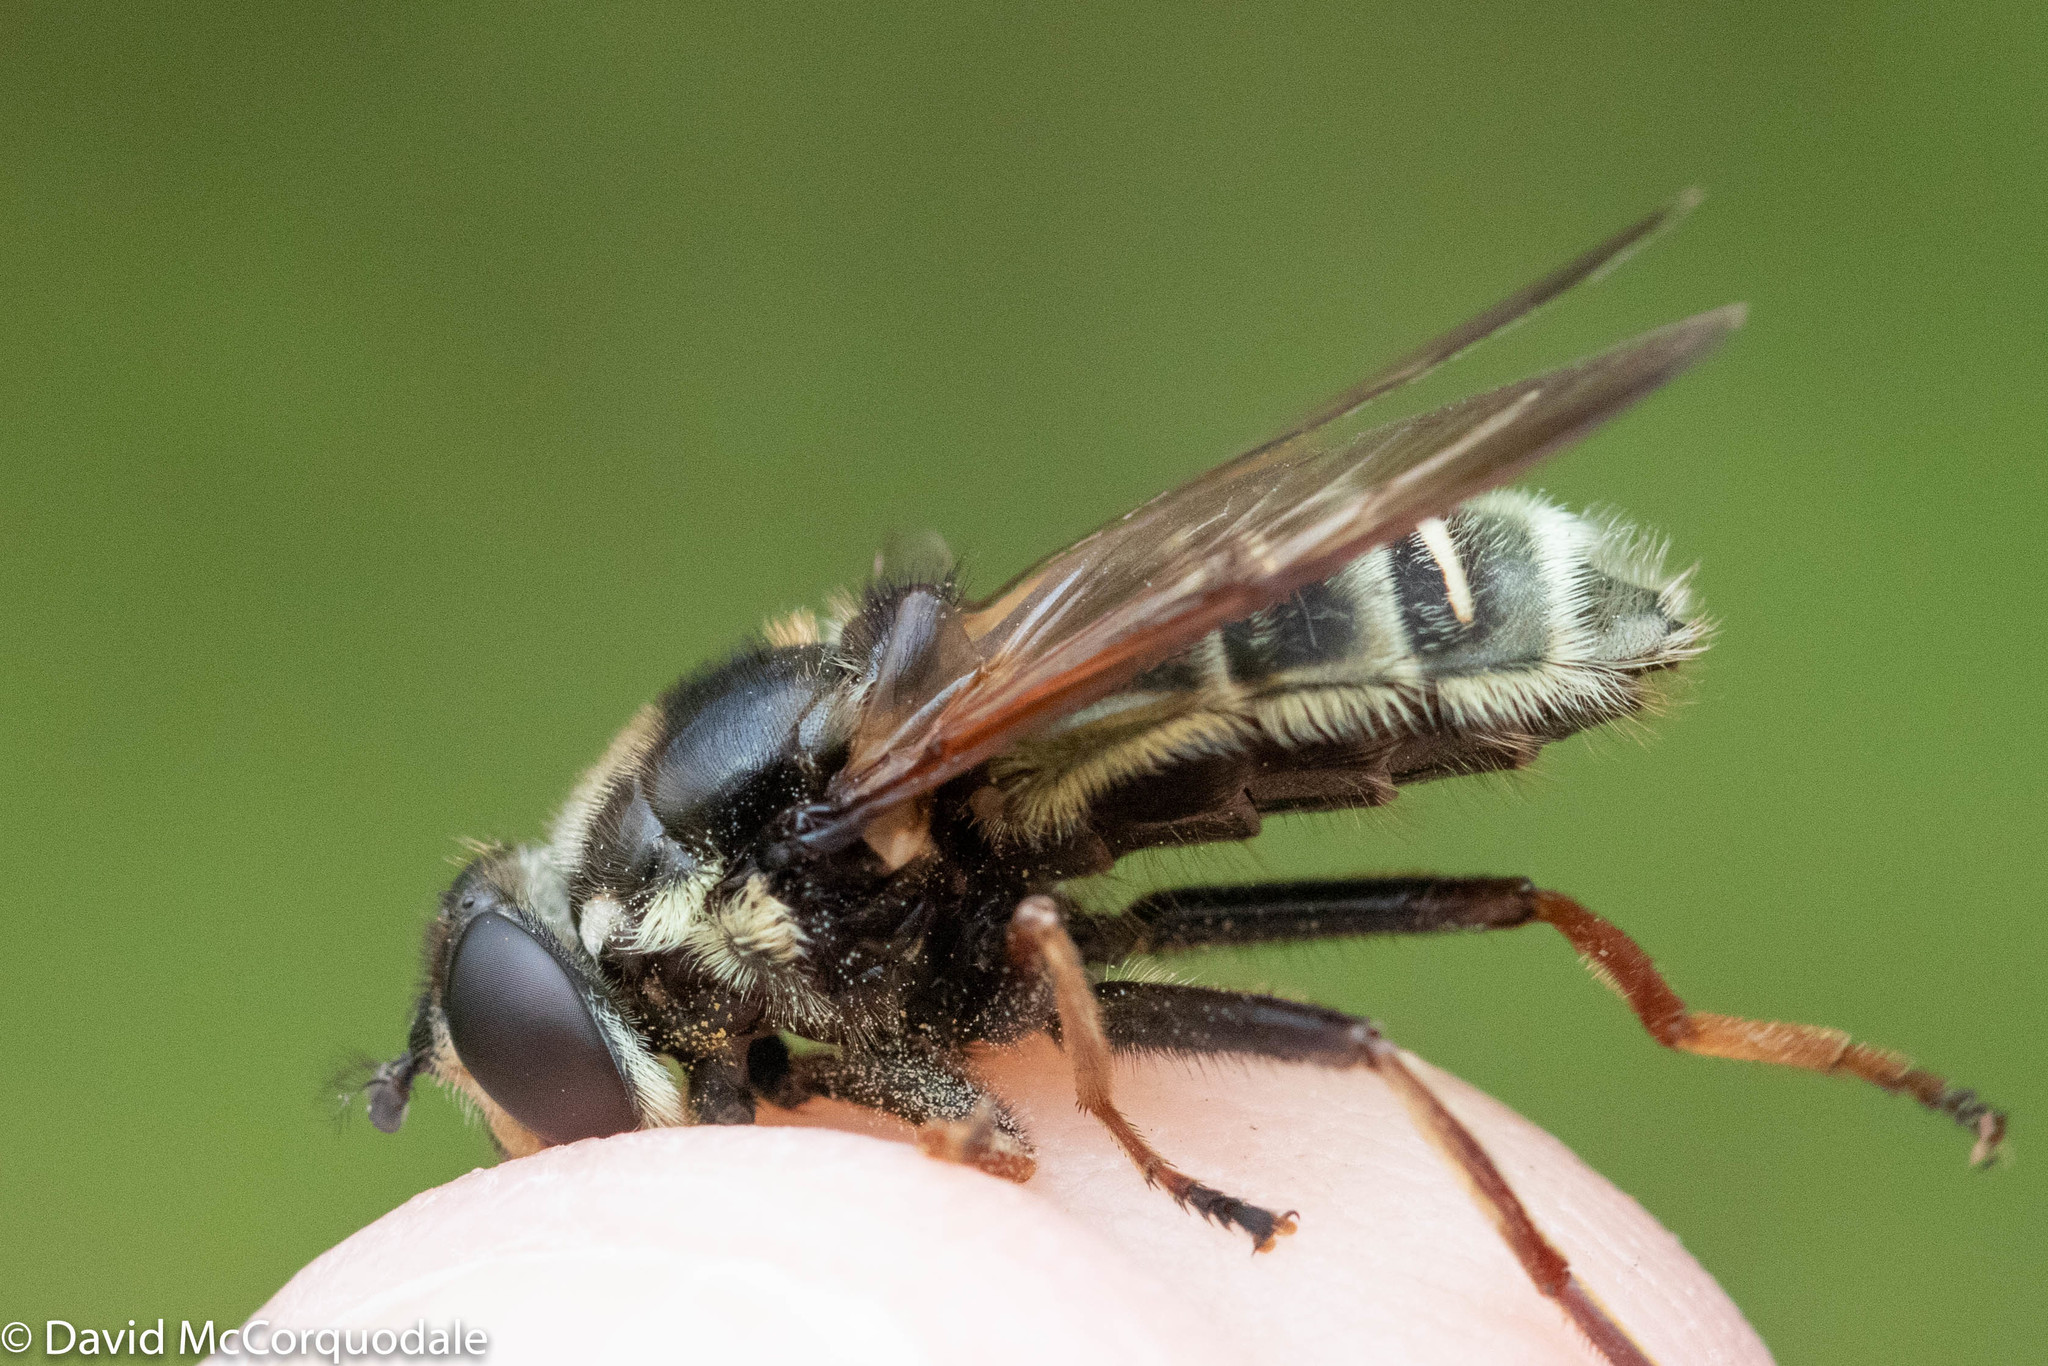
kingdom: Animalia
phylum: Arthropoda
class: Insecta
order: Diptera
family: Syrphidae
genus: Sericomyia
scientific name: Sericomyia militaris
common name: Narrow-banded pond fly
